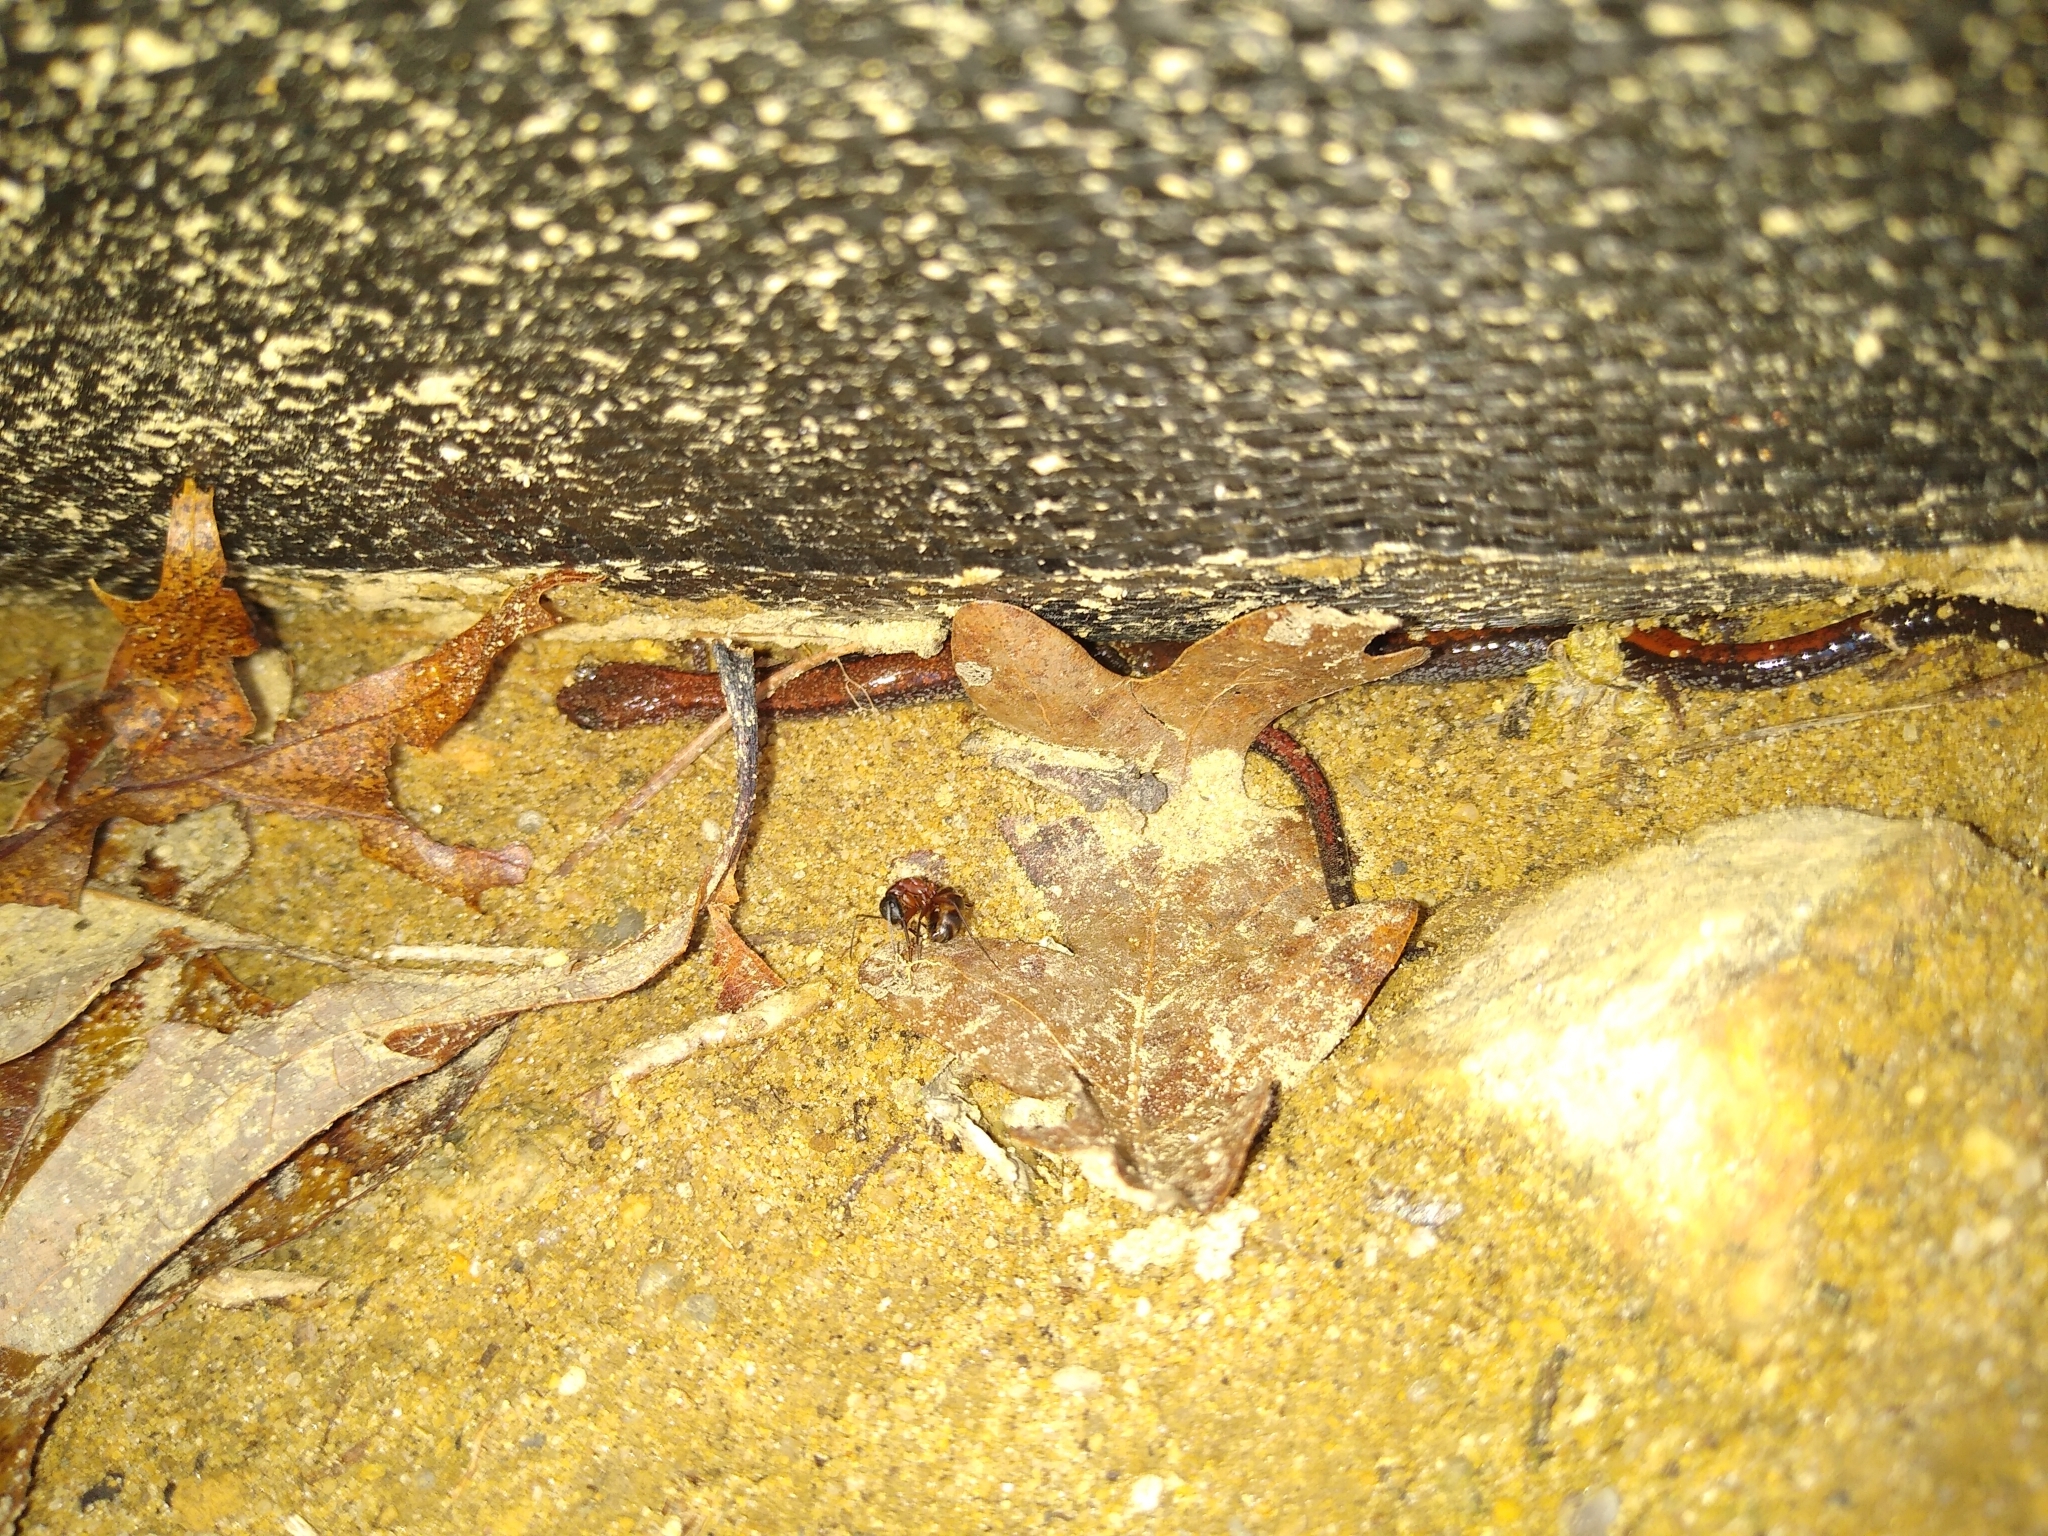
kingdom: Animalia
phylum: Chordata
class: Amphibia
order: Caudata
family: Plethodontidae
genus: Plethodon
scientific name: Plethodon cinereus
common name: Redback salamander
